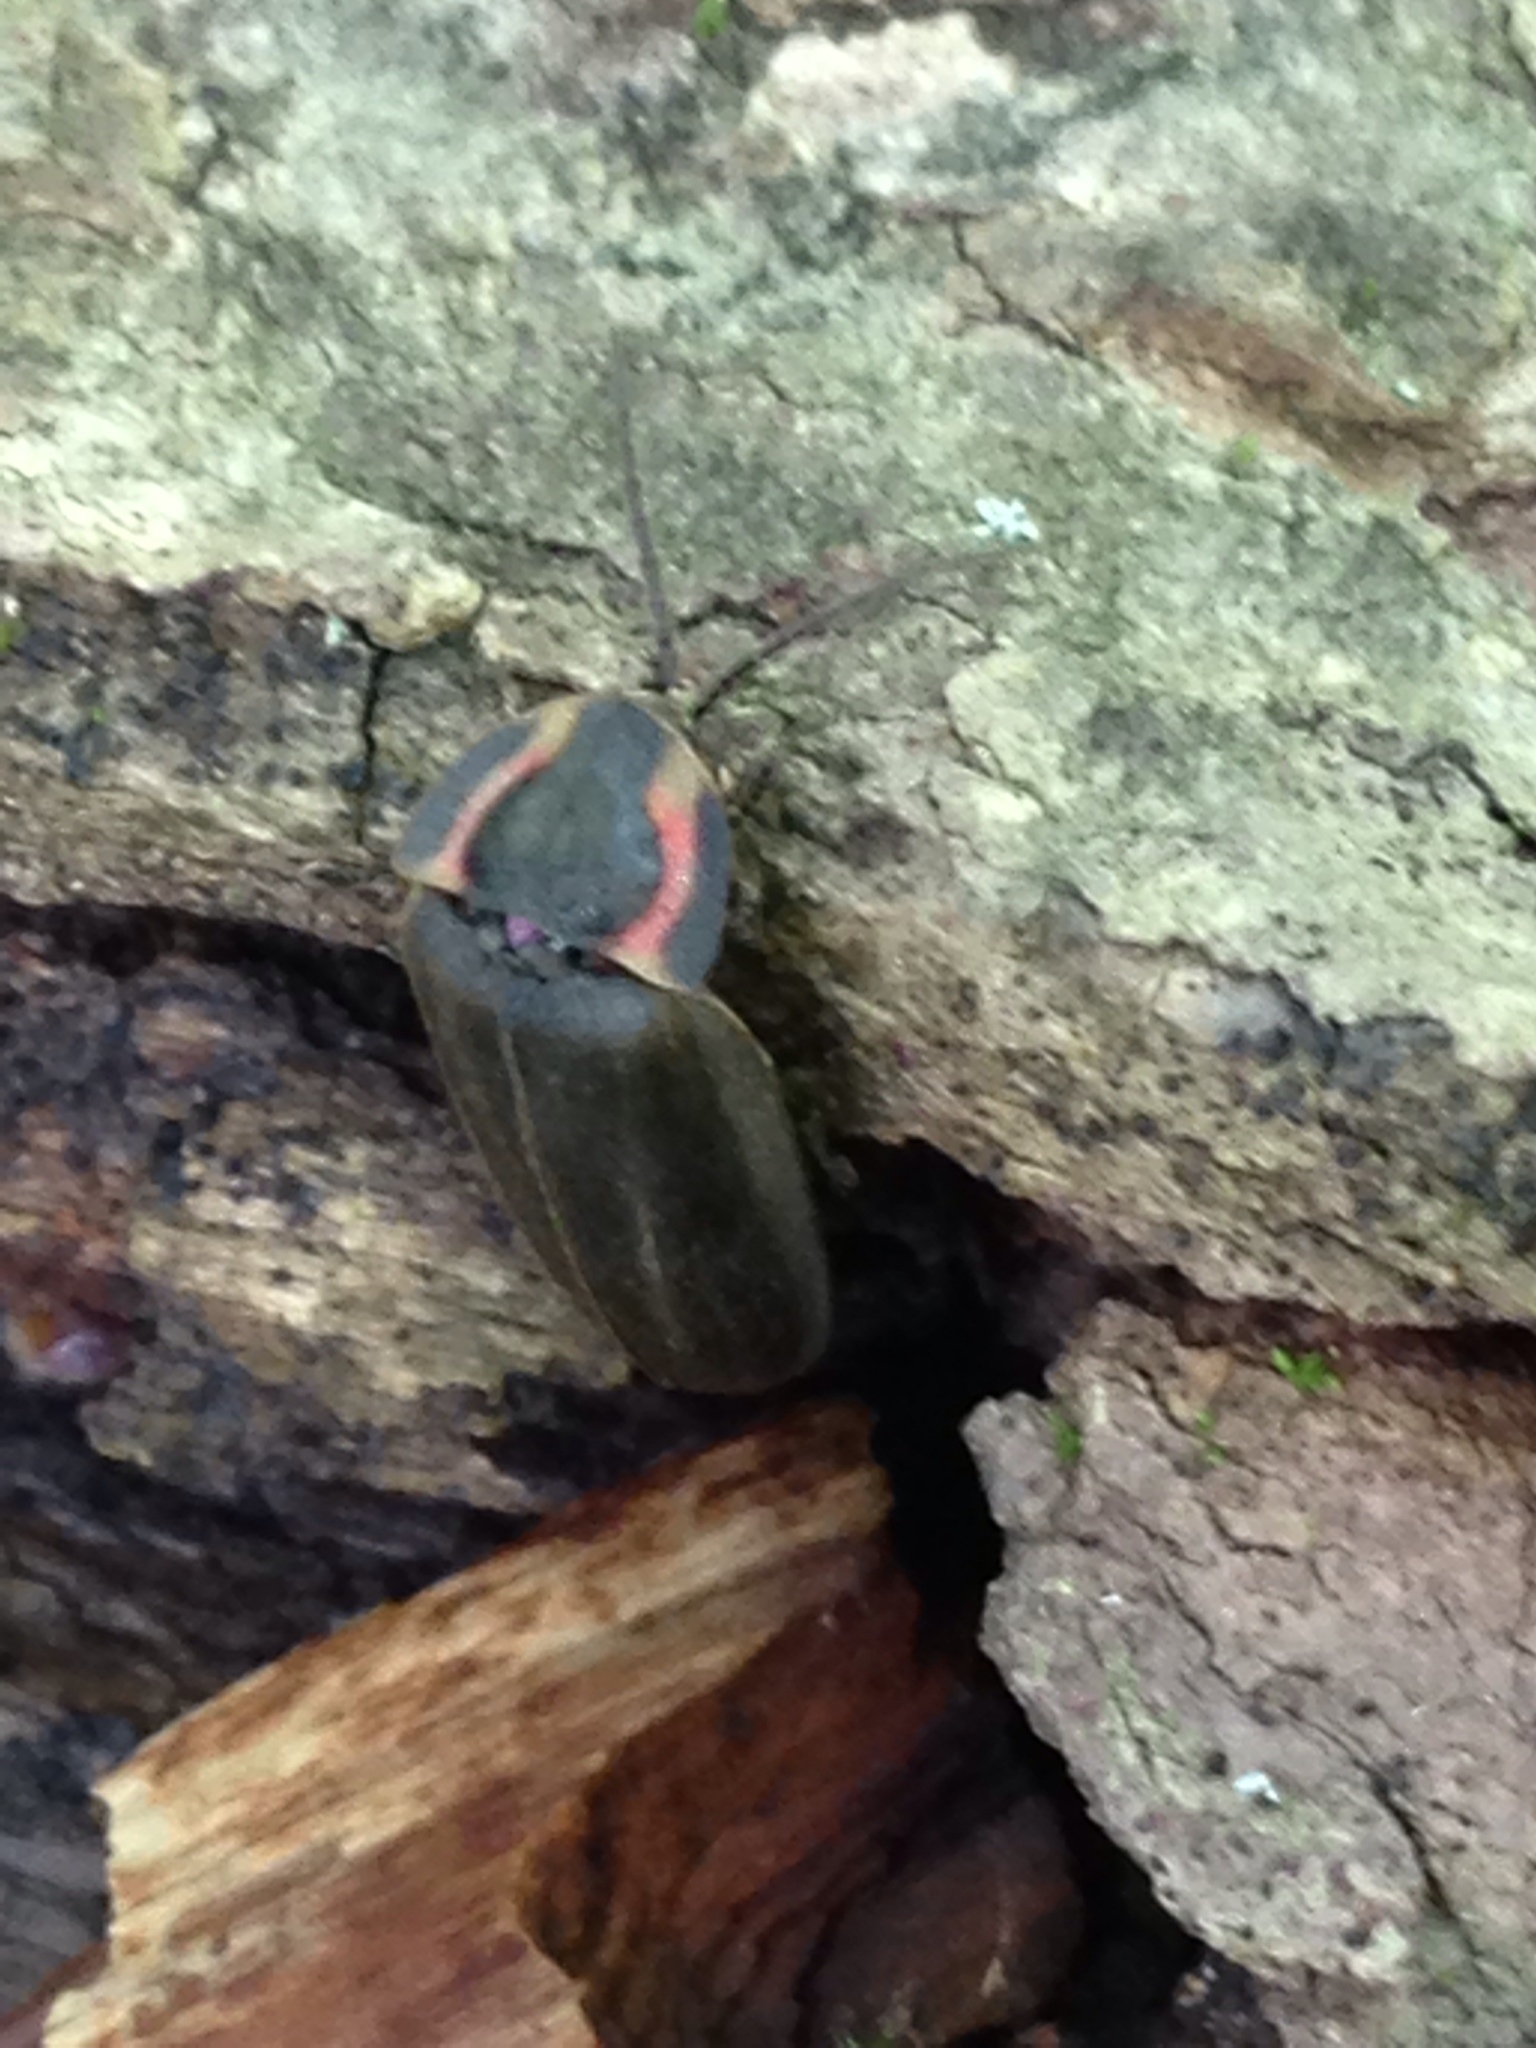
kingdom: Animalia
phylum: Arthropoda
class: Insecta
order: Coleoptera
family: Lampyridae
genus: Photinus
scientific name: Photinus corrusca
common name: Winter firefly
